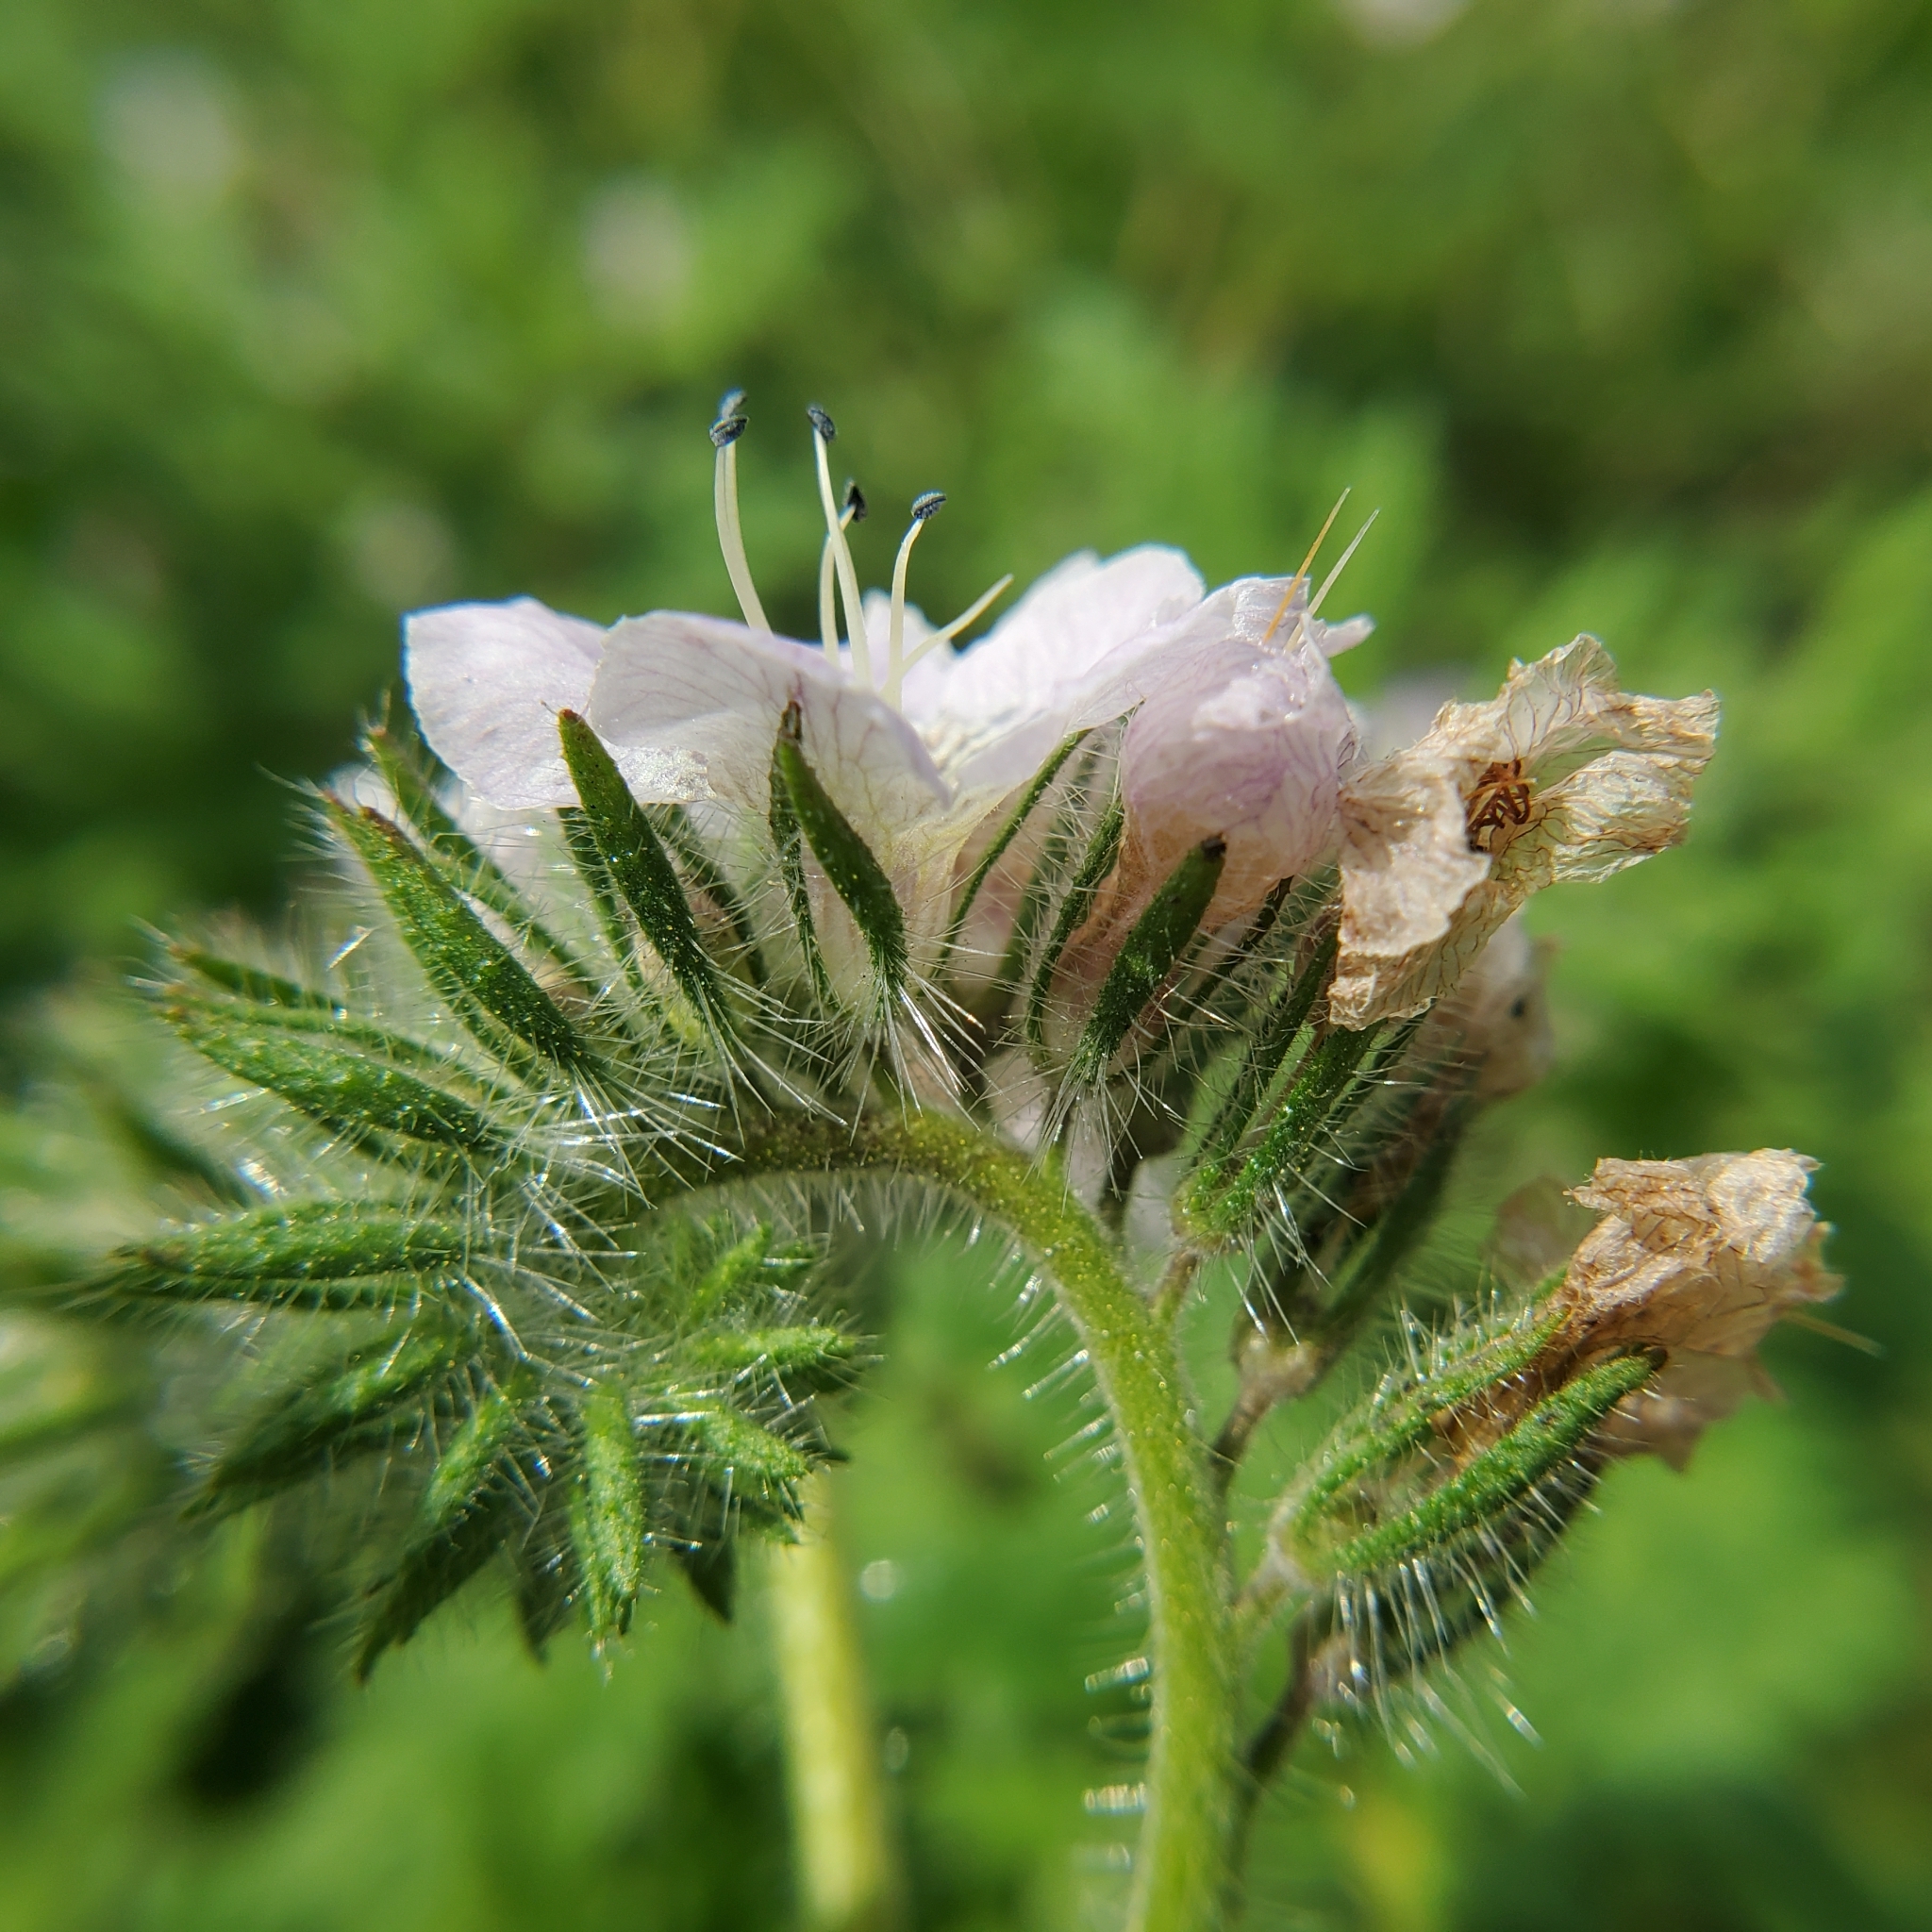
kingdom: Plantae
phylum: Tracheophyta
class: Magnoliopsida
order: Boraginales
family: Hydrophyllaceae
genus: Phacelia
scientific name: Phacelia cicutaria
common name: Caterpillar phacelia
